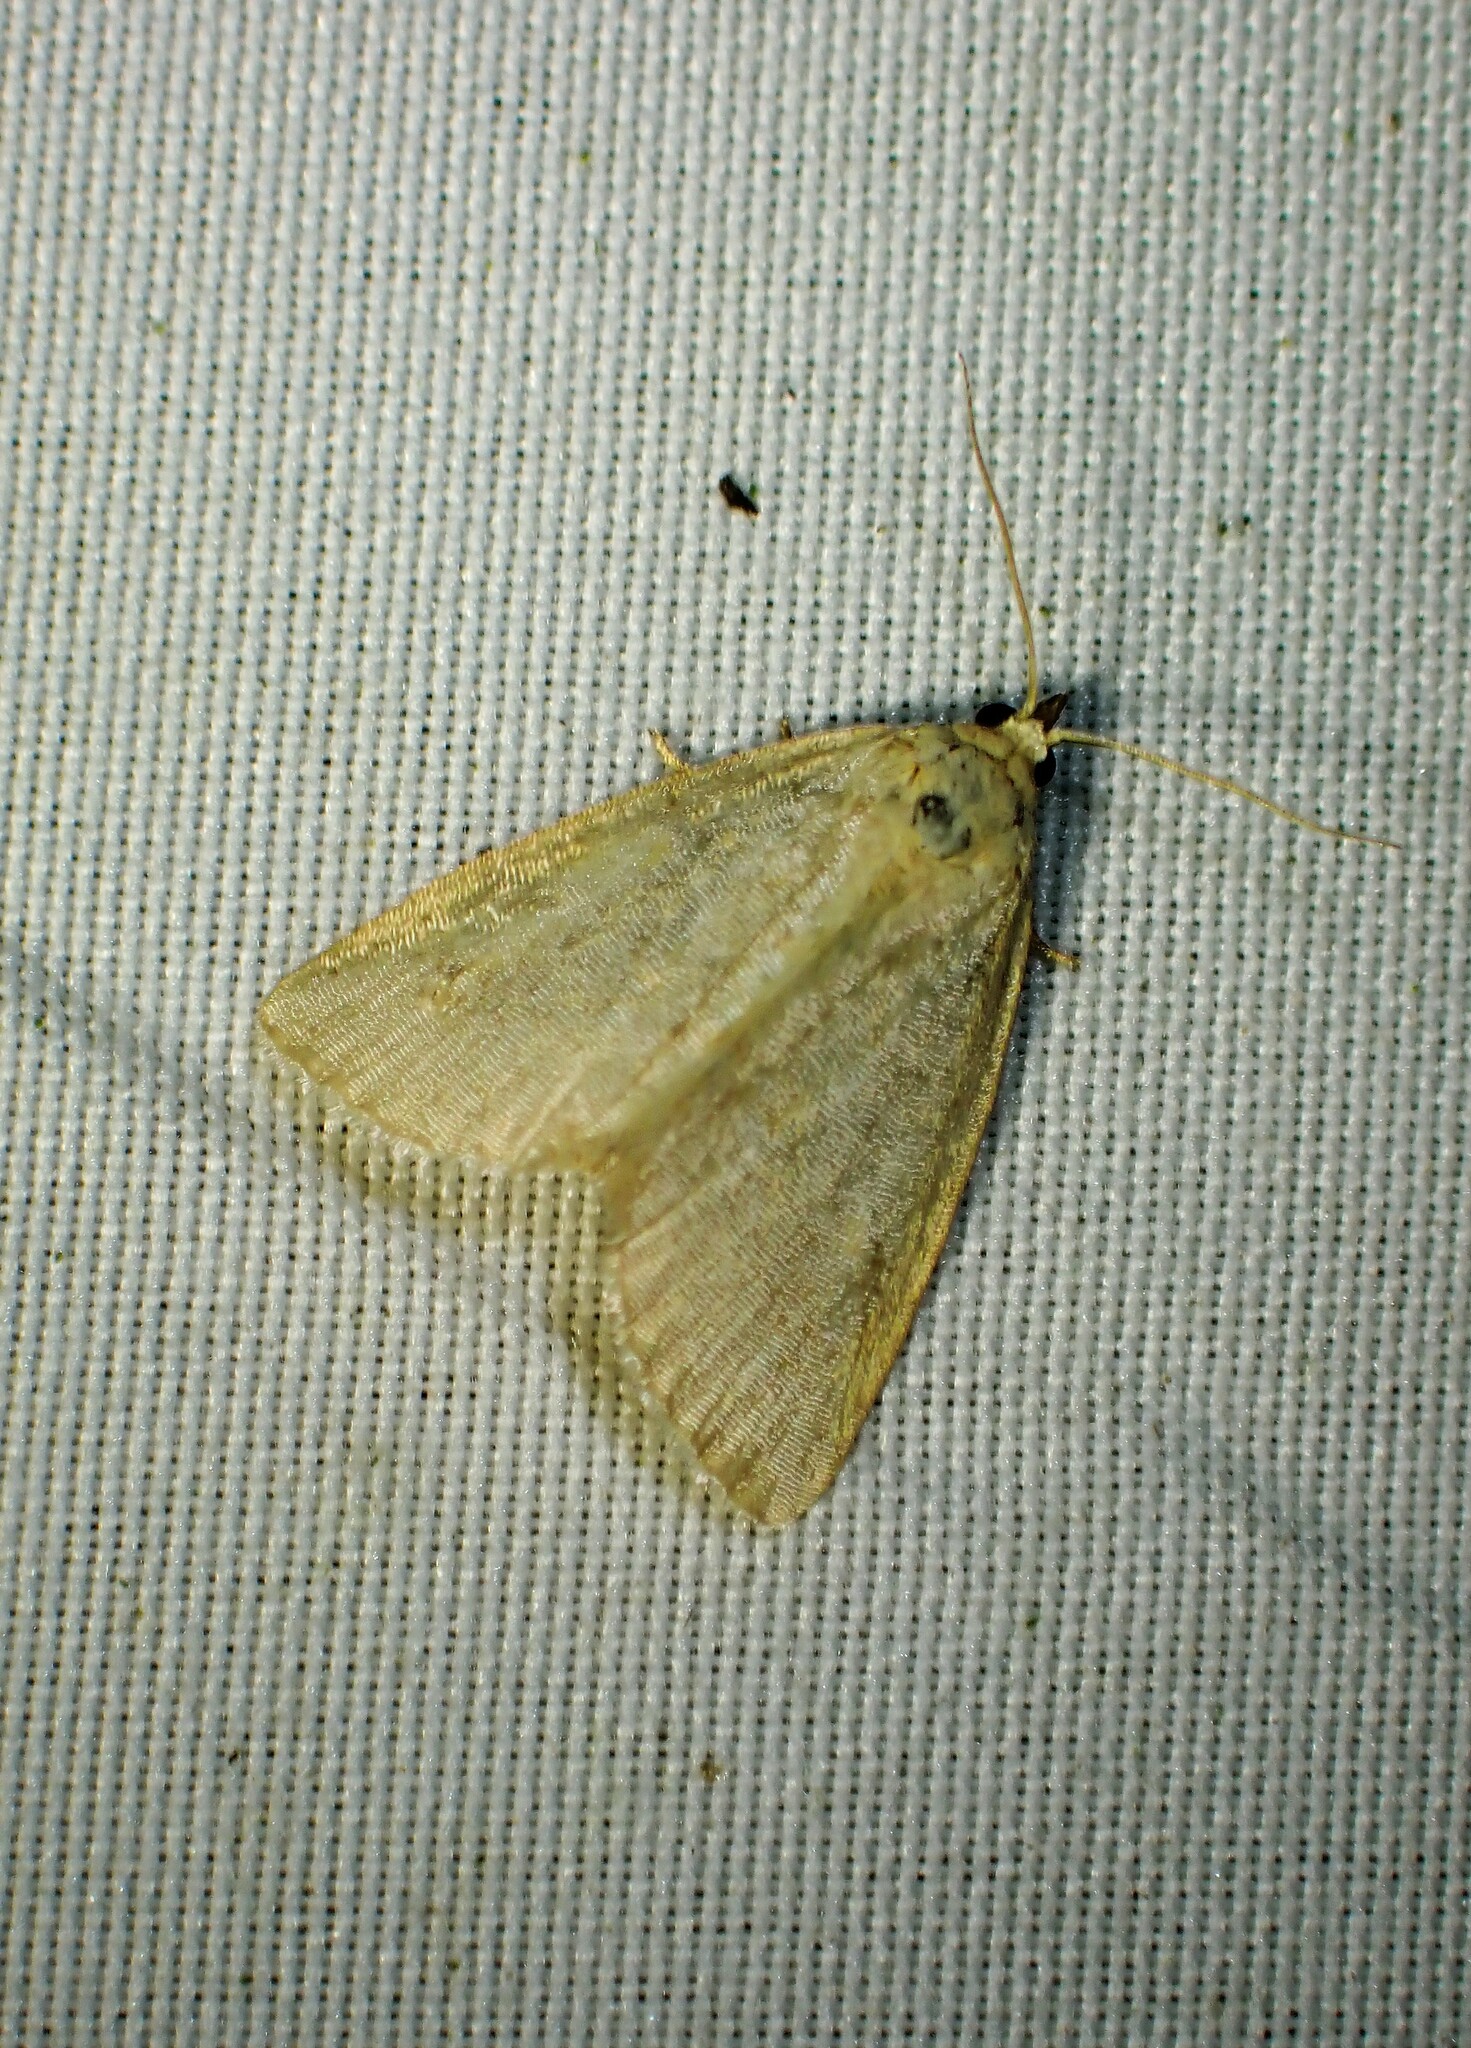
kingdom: Animalia
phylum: Arthropoda
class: Insecta
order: Lepidoptera
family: Noctuidae
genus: Protodeltote
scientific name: Protodeltote albidula
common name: Pale glyph
